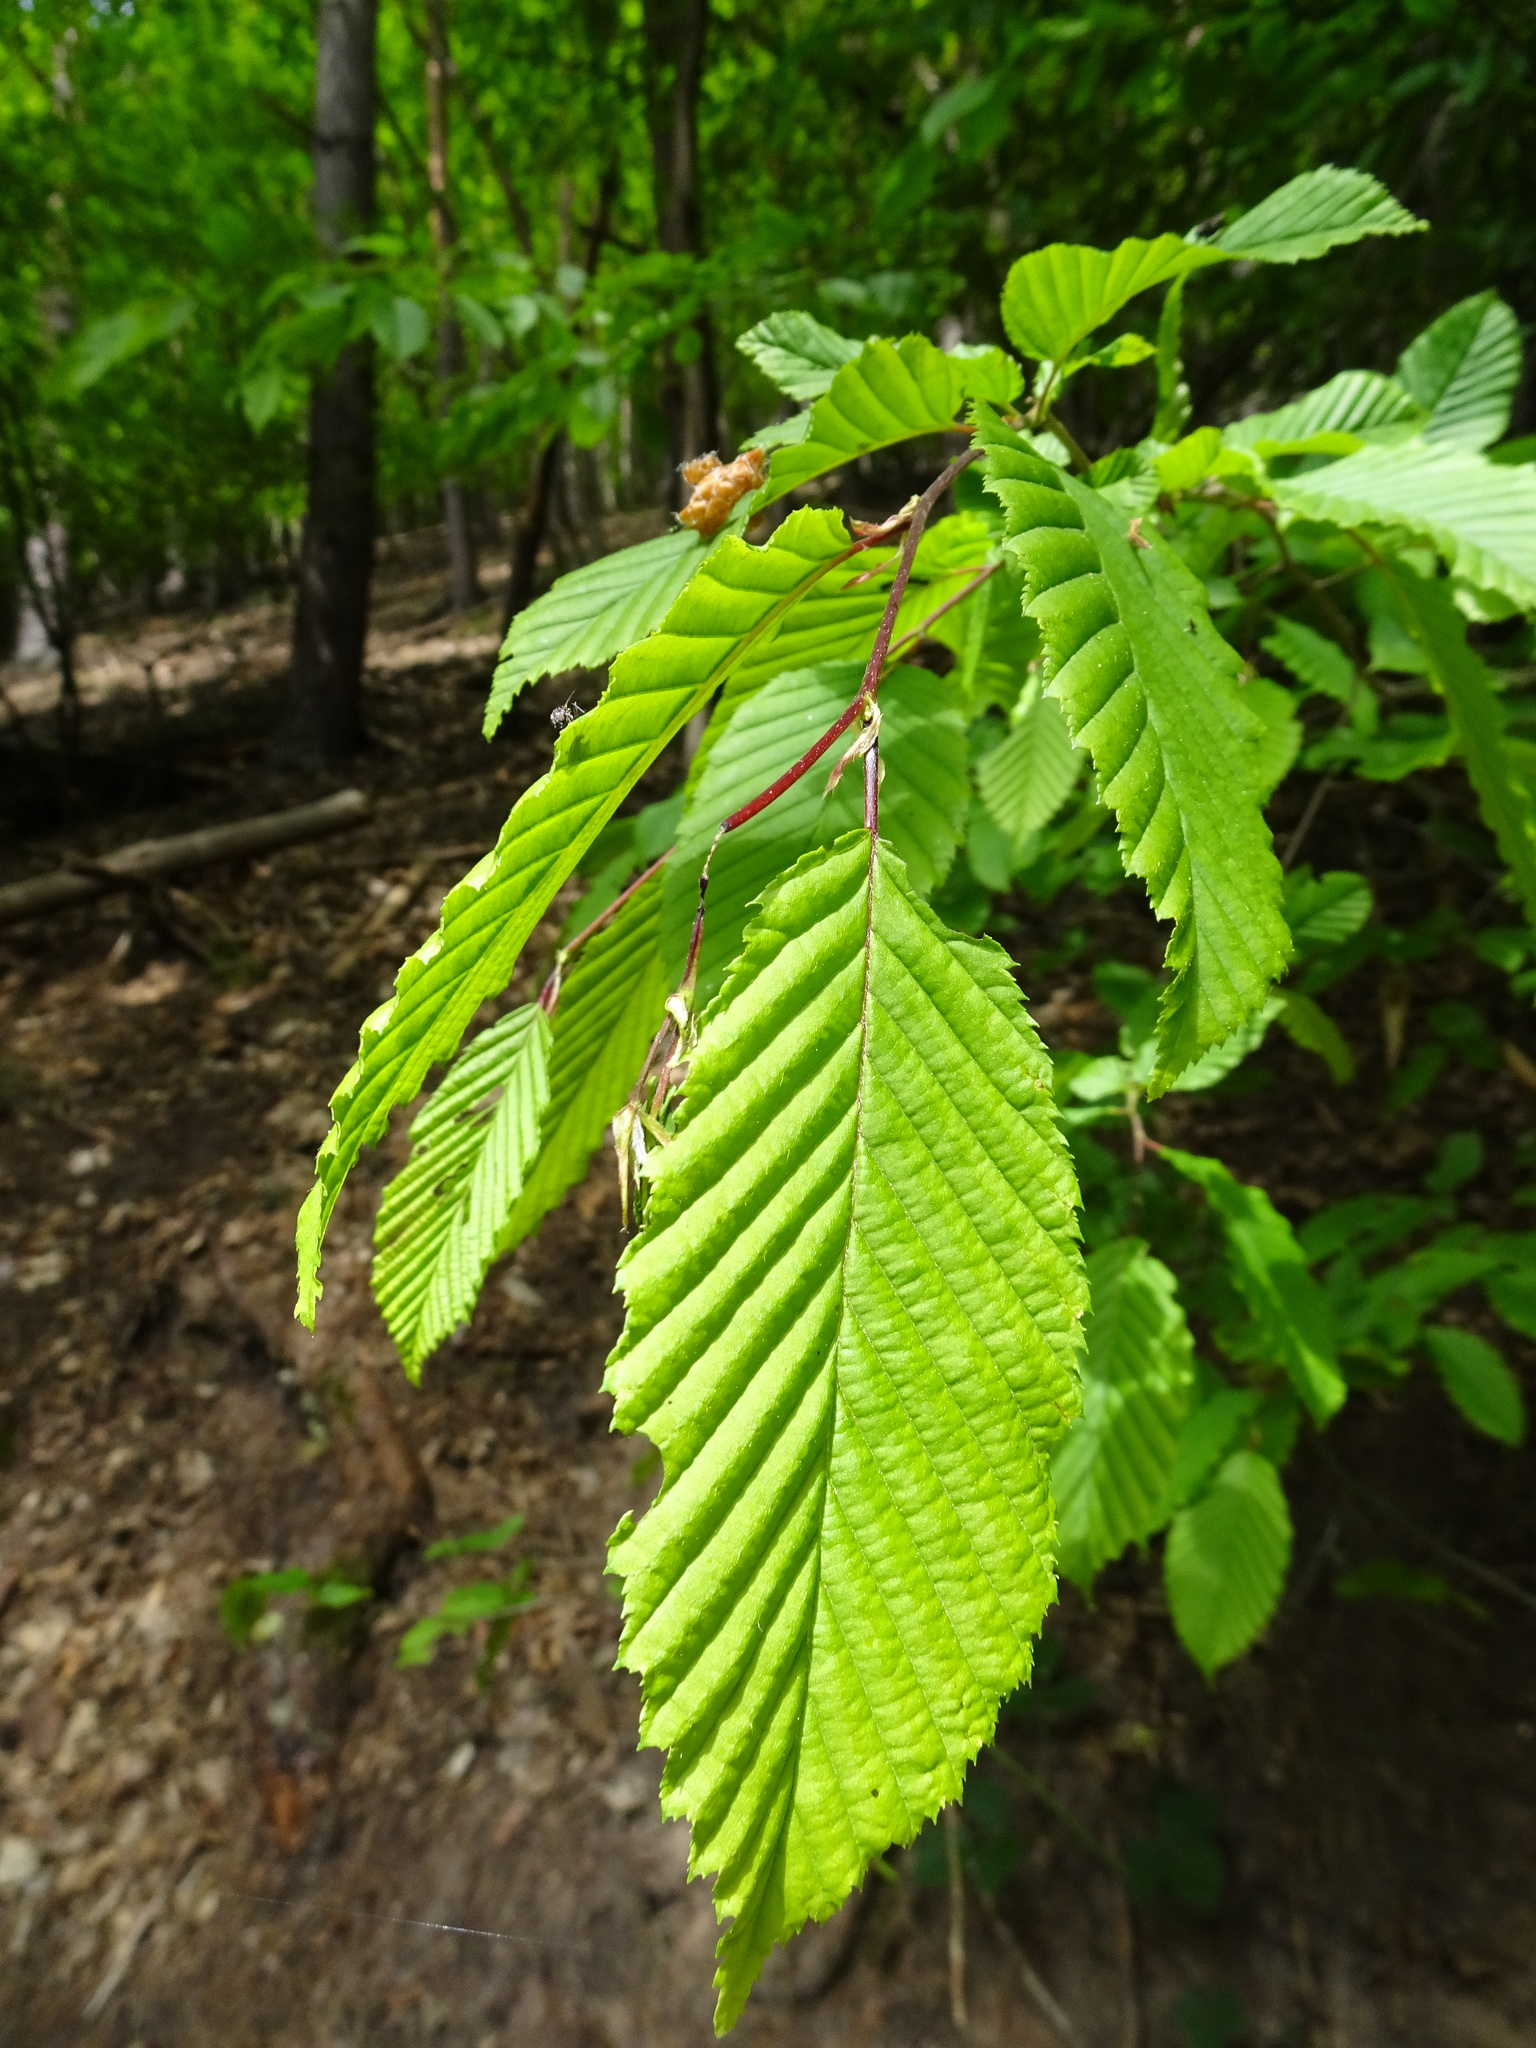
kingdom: Plantae
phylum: Tracheophyta
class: Magnoliopsida
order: Fagales
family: Betulaceae
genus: Carpinus
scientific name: Carpinus betulus
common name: Hornbeam
